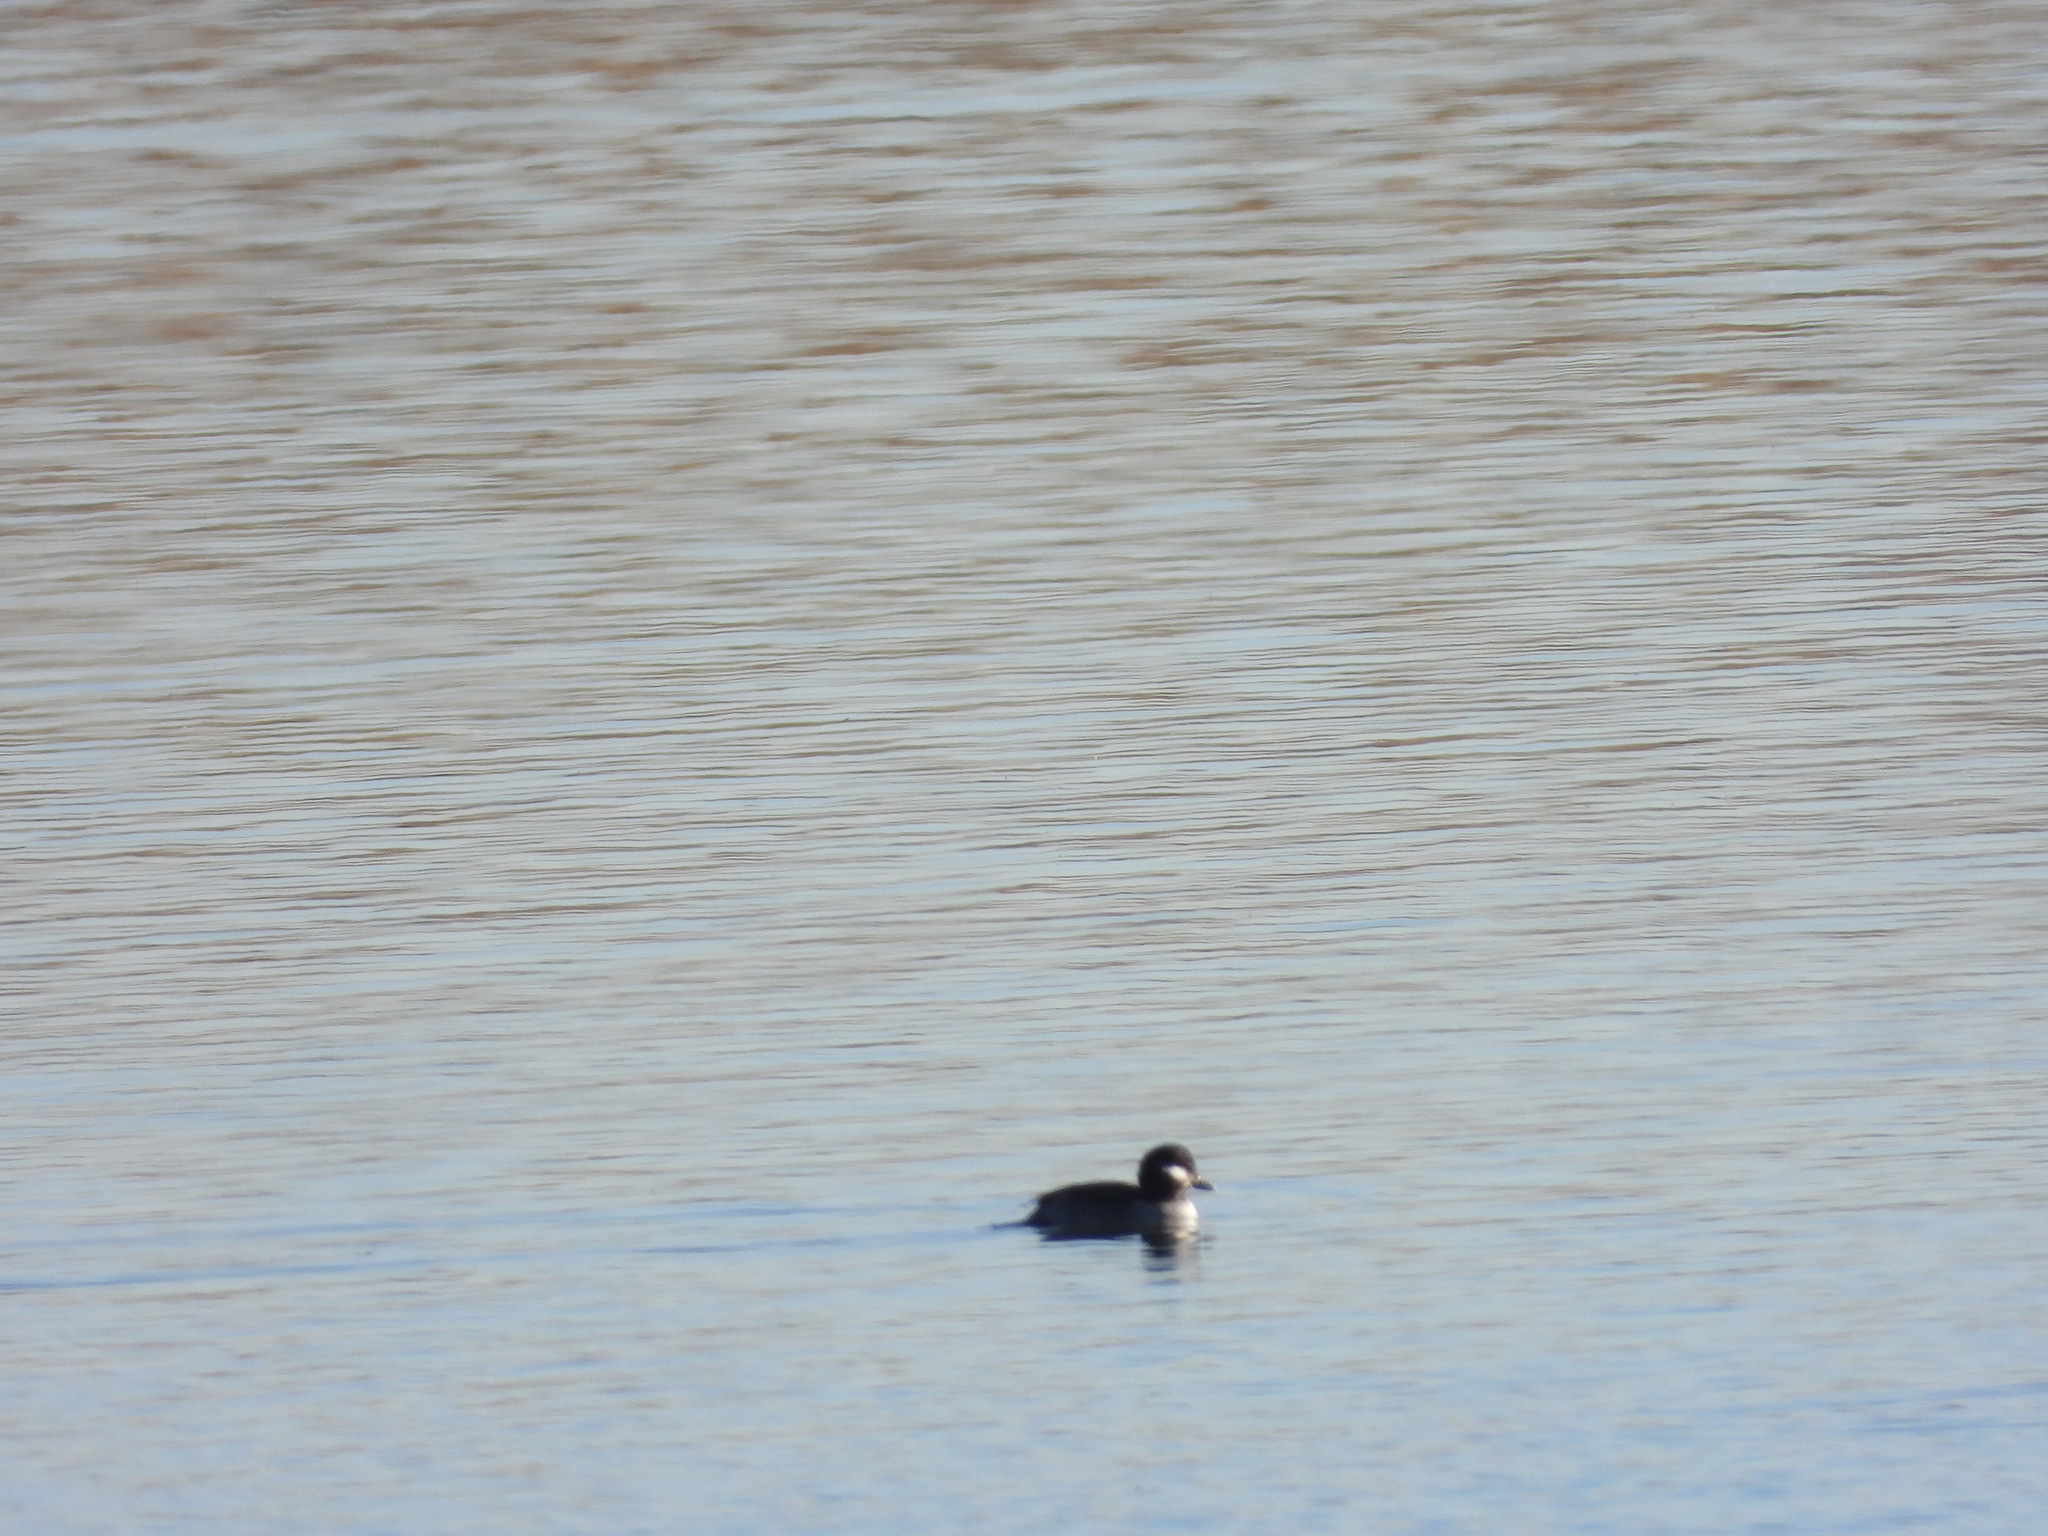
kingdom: Animalia
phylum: Chordata
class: Aves
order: Anseriformes
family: Anatidae
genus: Bucephala
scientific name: Bucephala albeola
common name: Bufflehead
